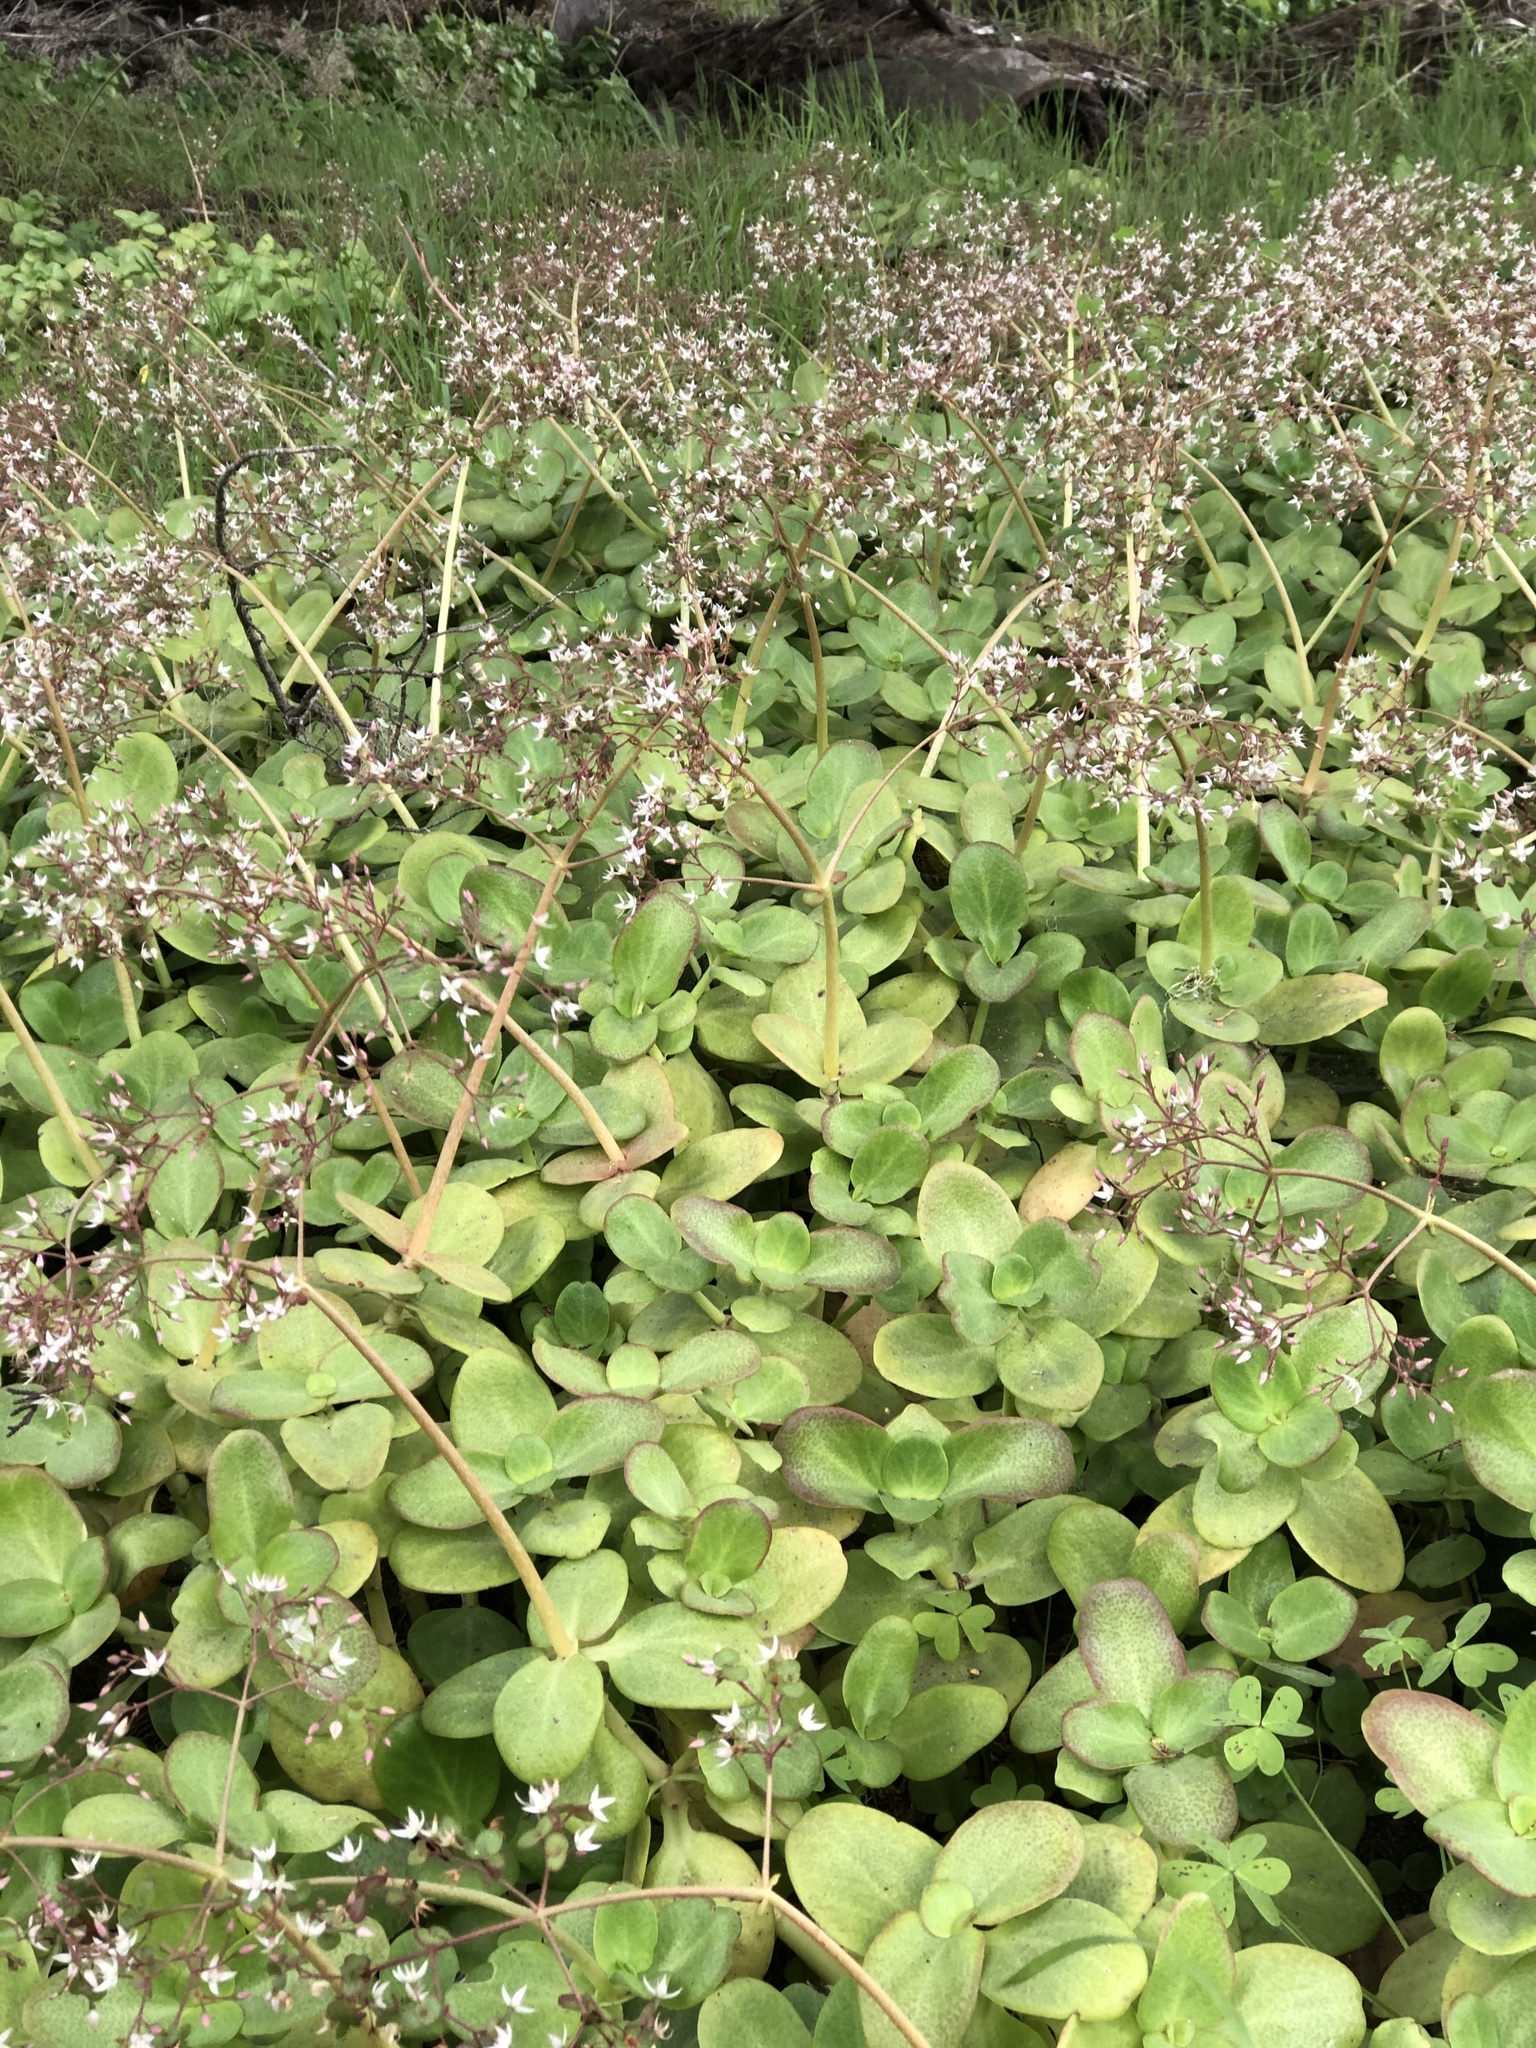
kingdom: Plantae
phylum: Tracheophyta
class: Magnoliopsida
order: Saxifragales
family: Crassulaceae
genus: Crassula
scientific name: Crassula multicava
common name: Cape province pygmyweed
